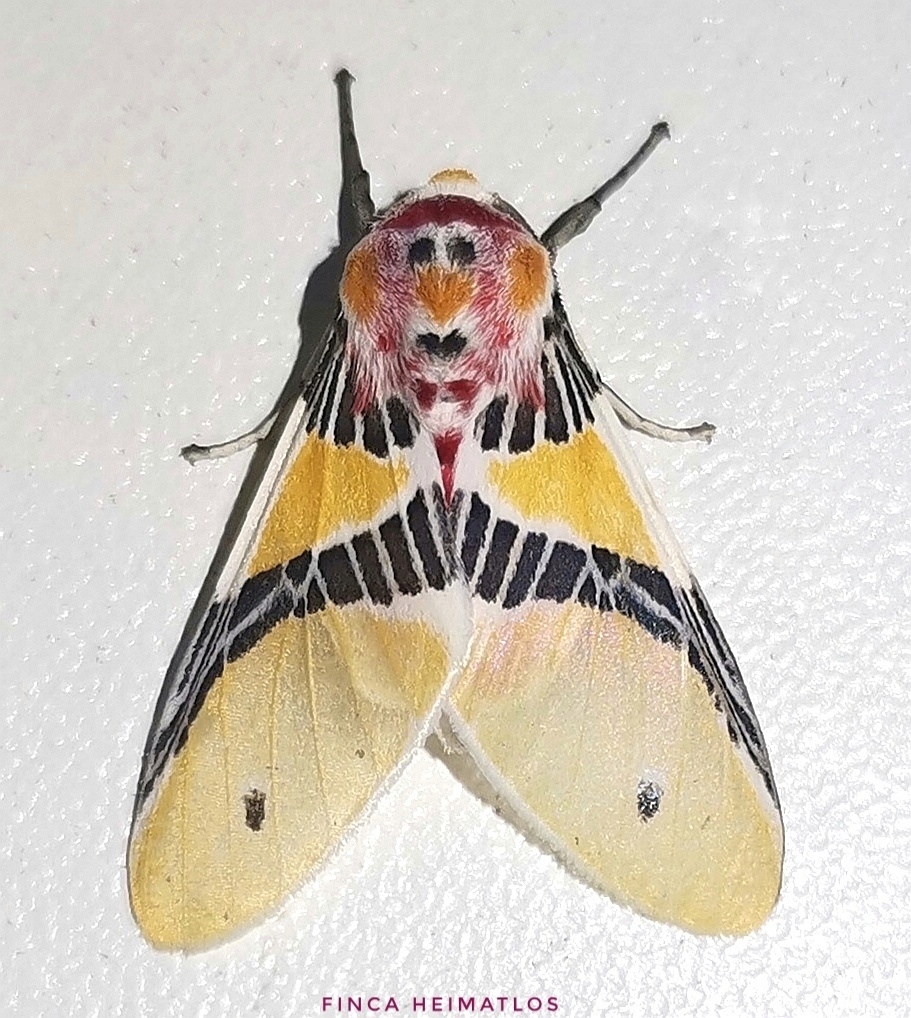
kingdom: Animalia
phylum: Arthropoda
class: Insecta
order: Lepidoptera
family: Erebidae
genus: Idalus
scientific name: Idalus monostidza
